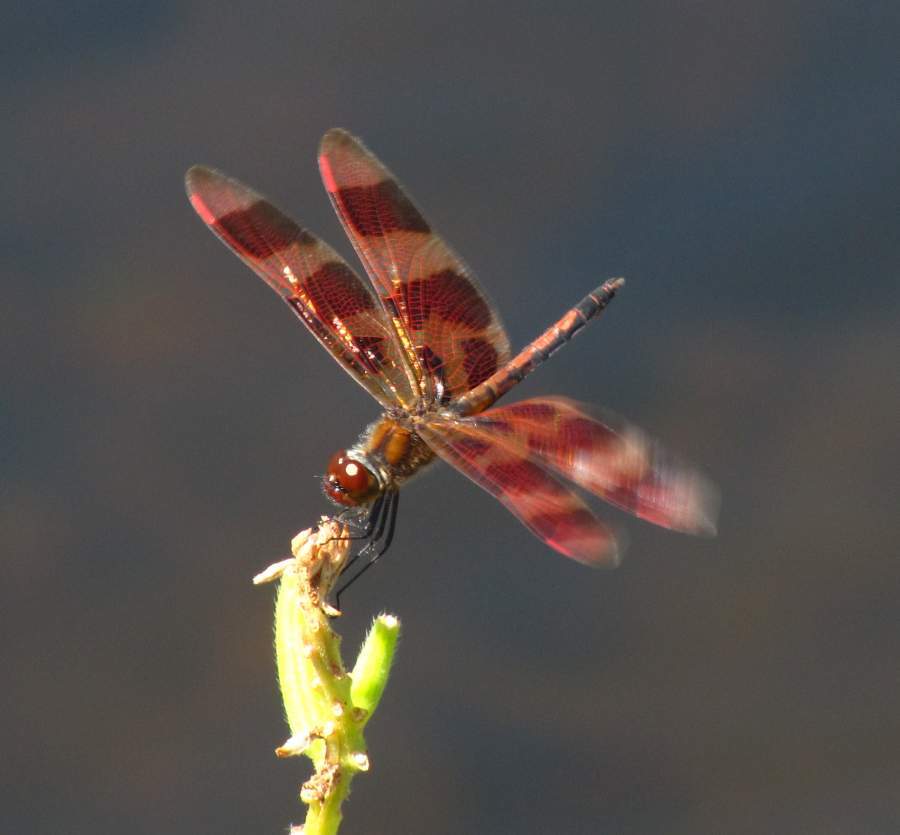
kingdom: Animalia
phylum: Arthropoda
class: Insecta
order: Odonata
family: Libellulidae
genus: Celithemis
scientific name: Celithemis eponina
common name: Halloween pennant
